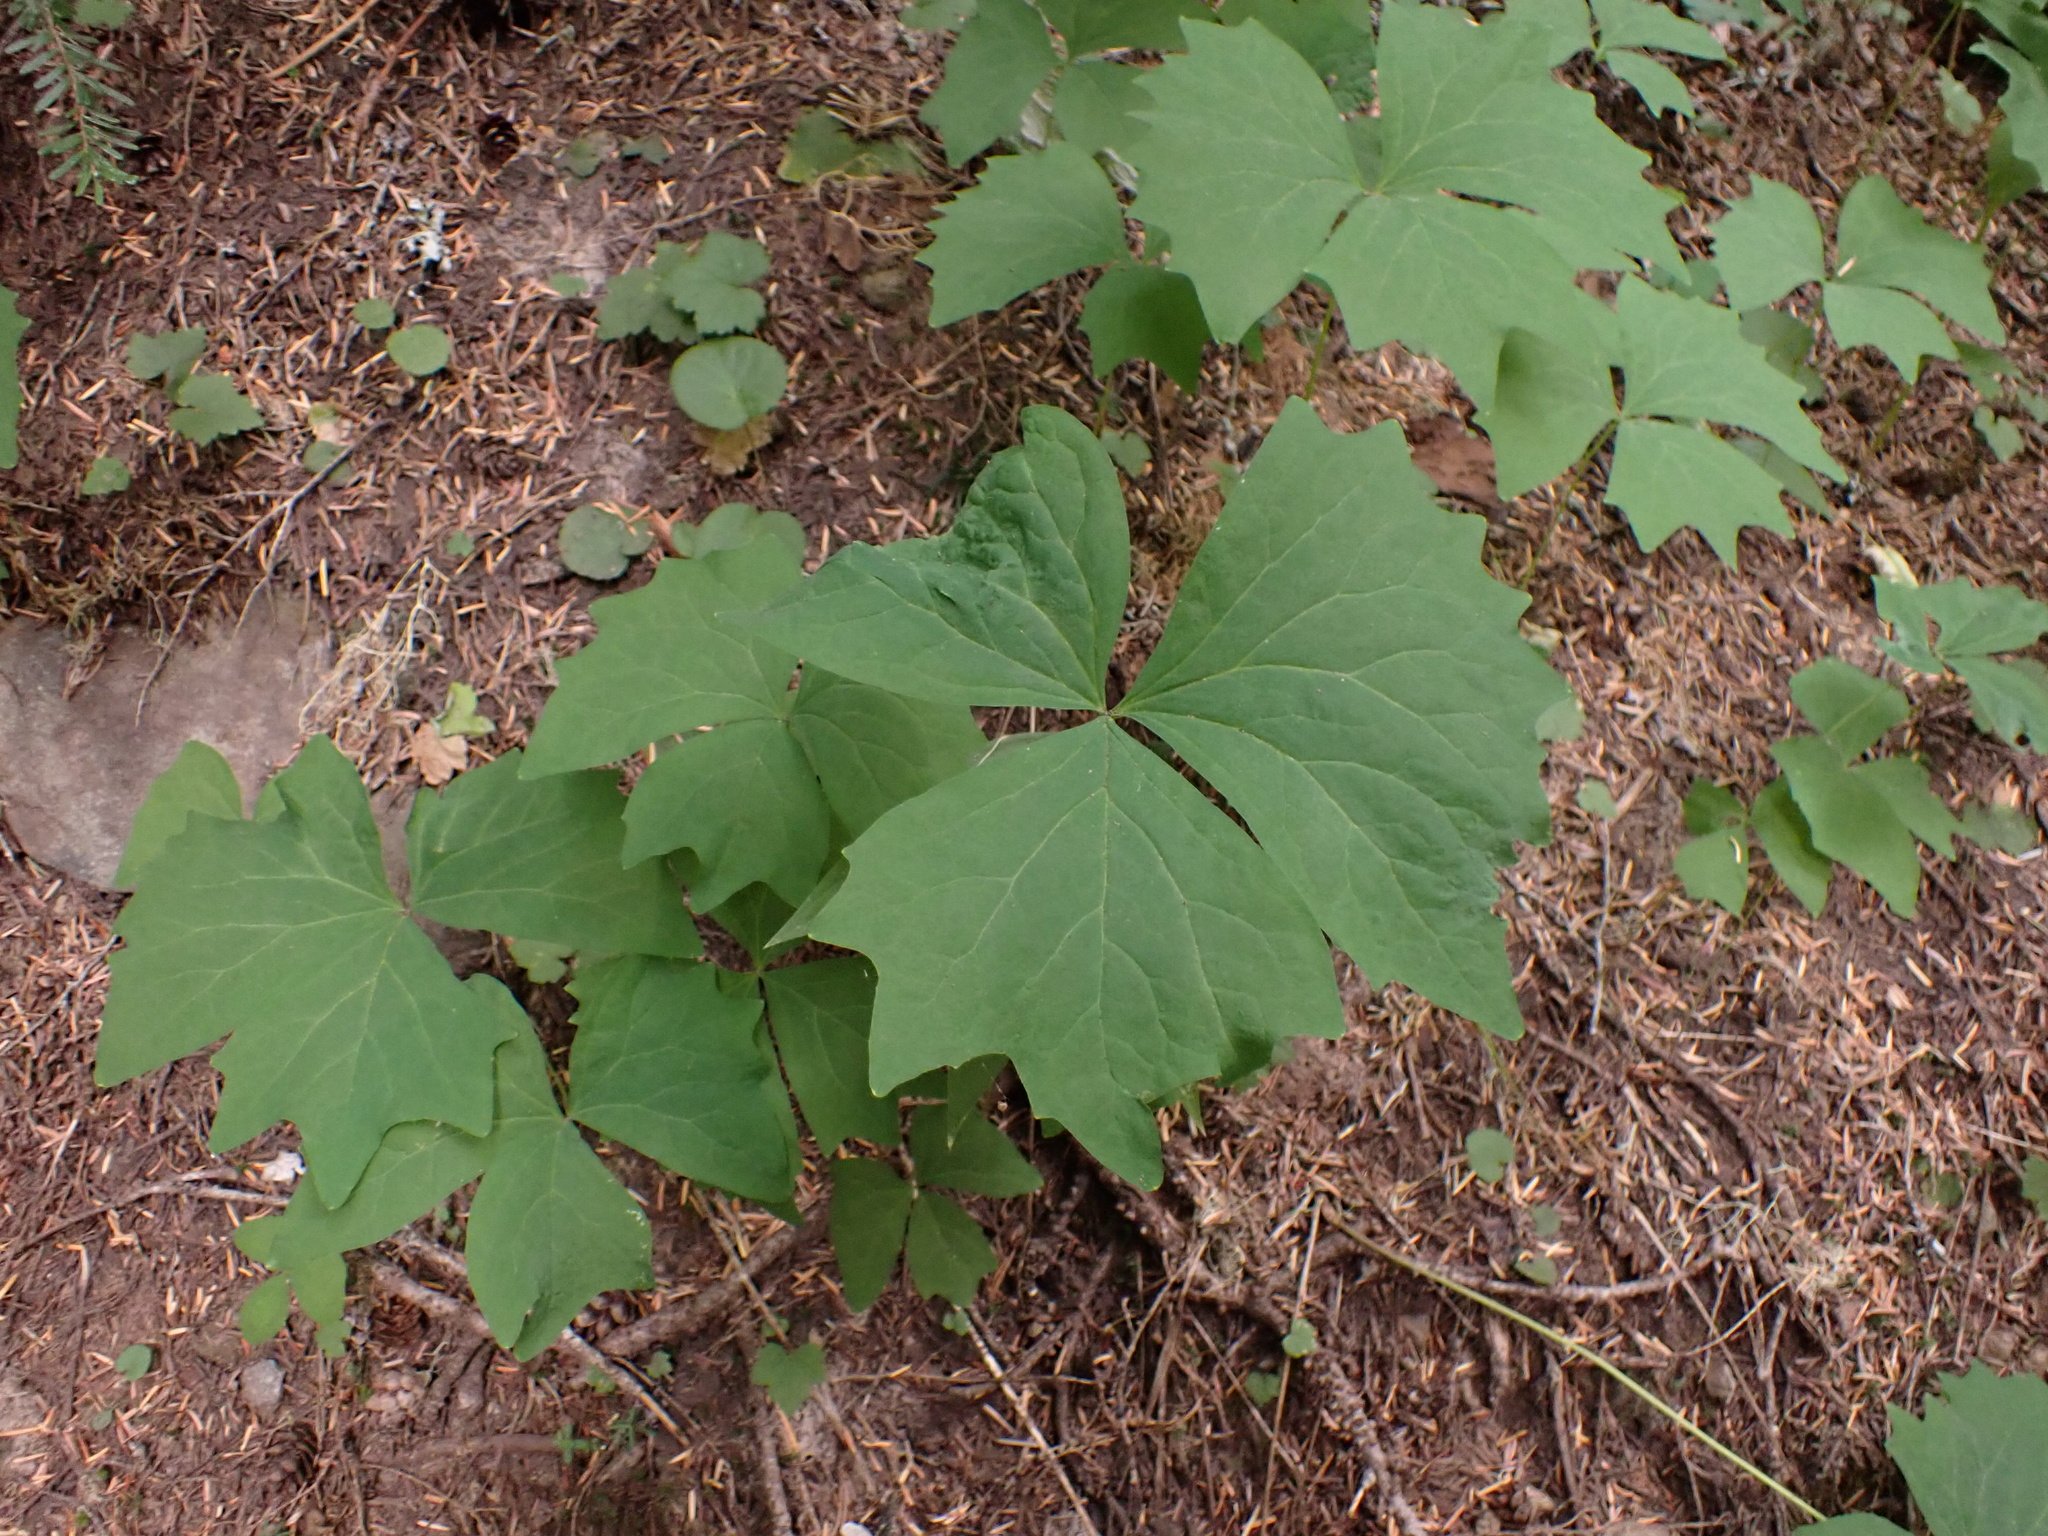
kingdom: Plantae
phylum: Tracheophyta
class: Magnoliopsida
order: Ranunculales
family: Berberidaceae
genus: Achlys
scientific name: Achlys triphylla
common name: Vanilla-leaf
